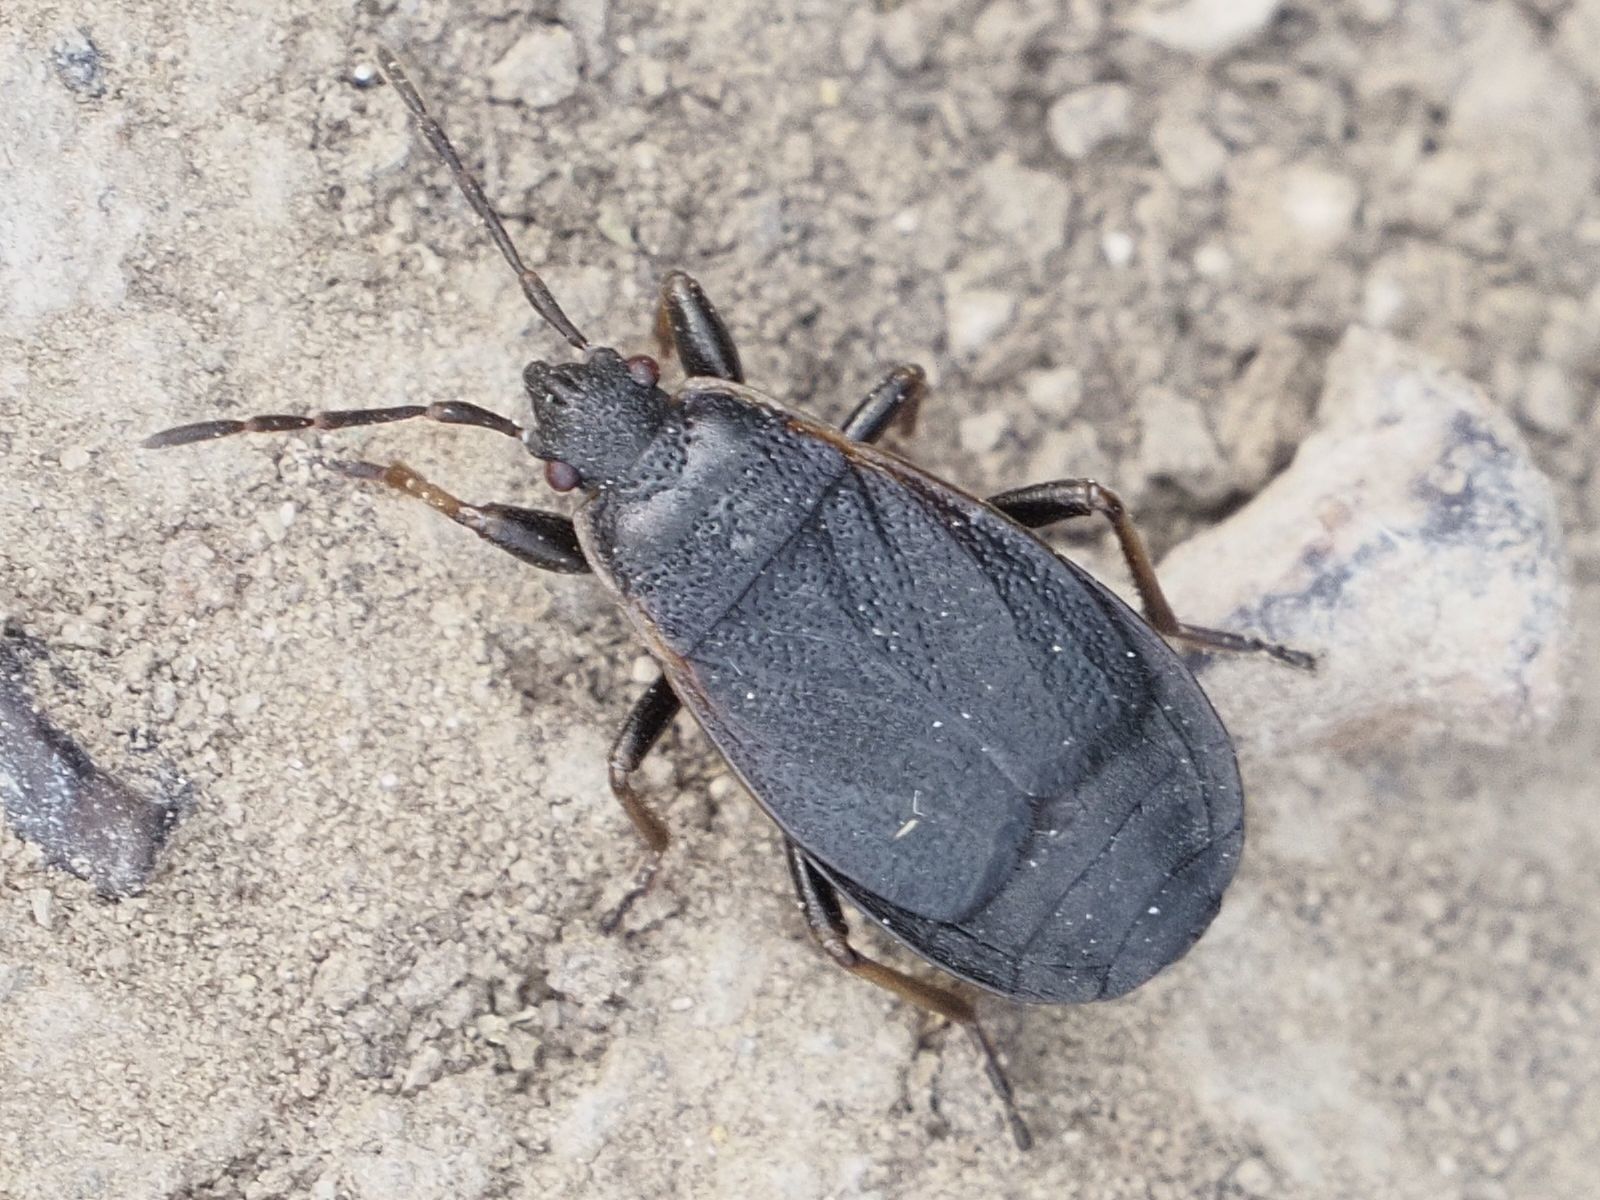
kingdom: Animalia
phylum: Arthropoda
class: Insecta
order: Hemiptera
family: Pyrrhocoridae
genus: Pyrrhocoris
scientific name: Pyrrhocoris marginatus
